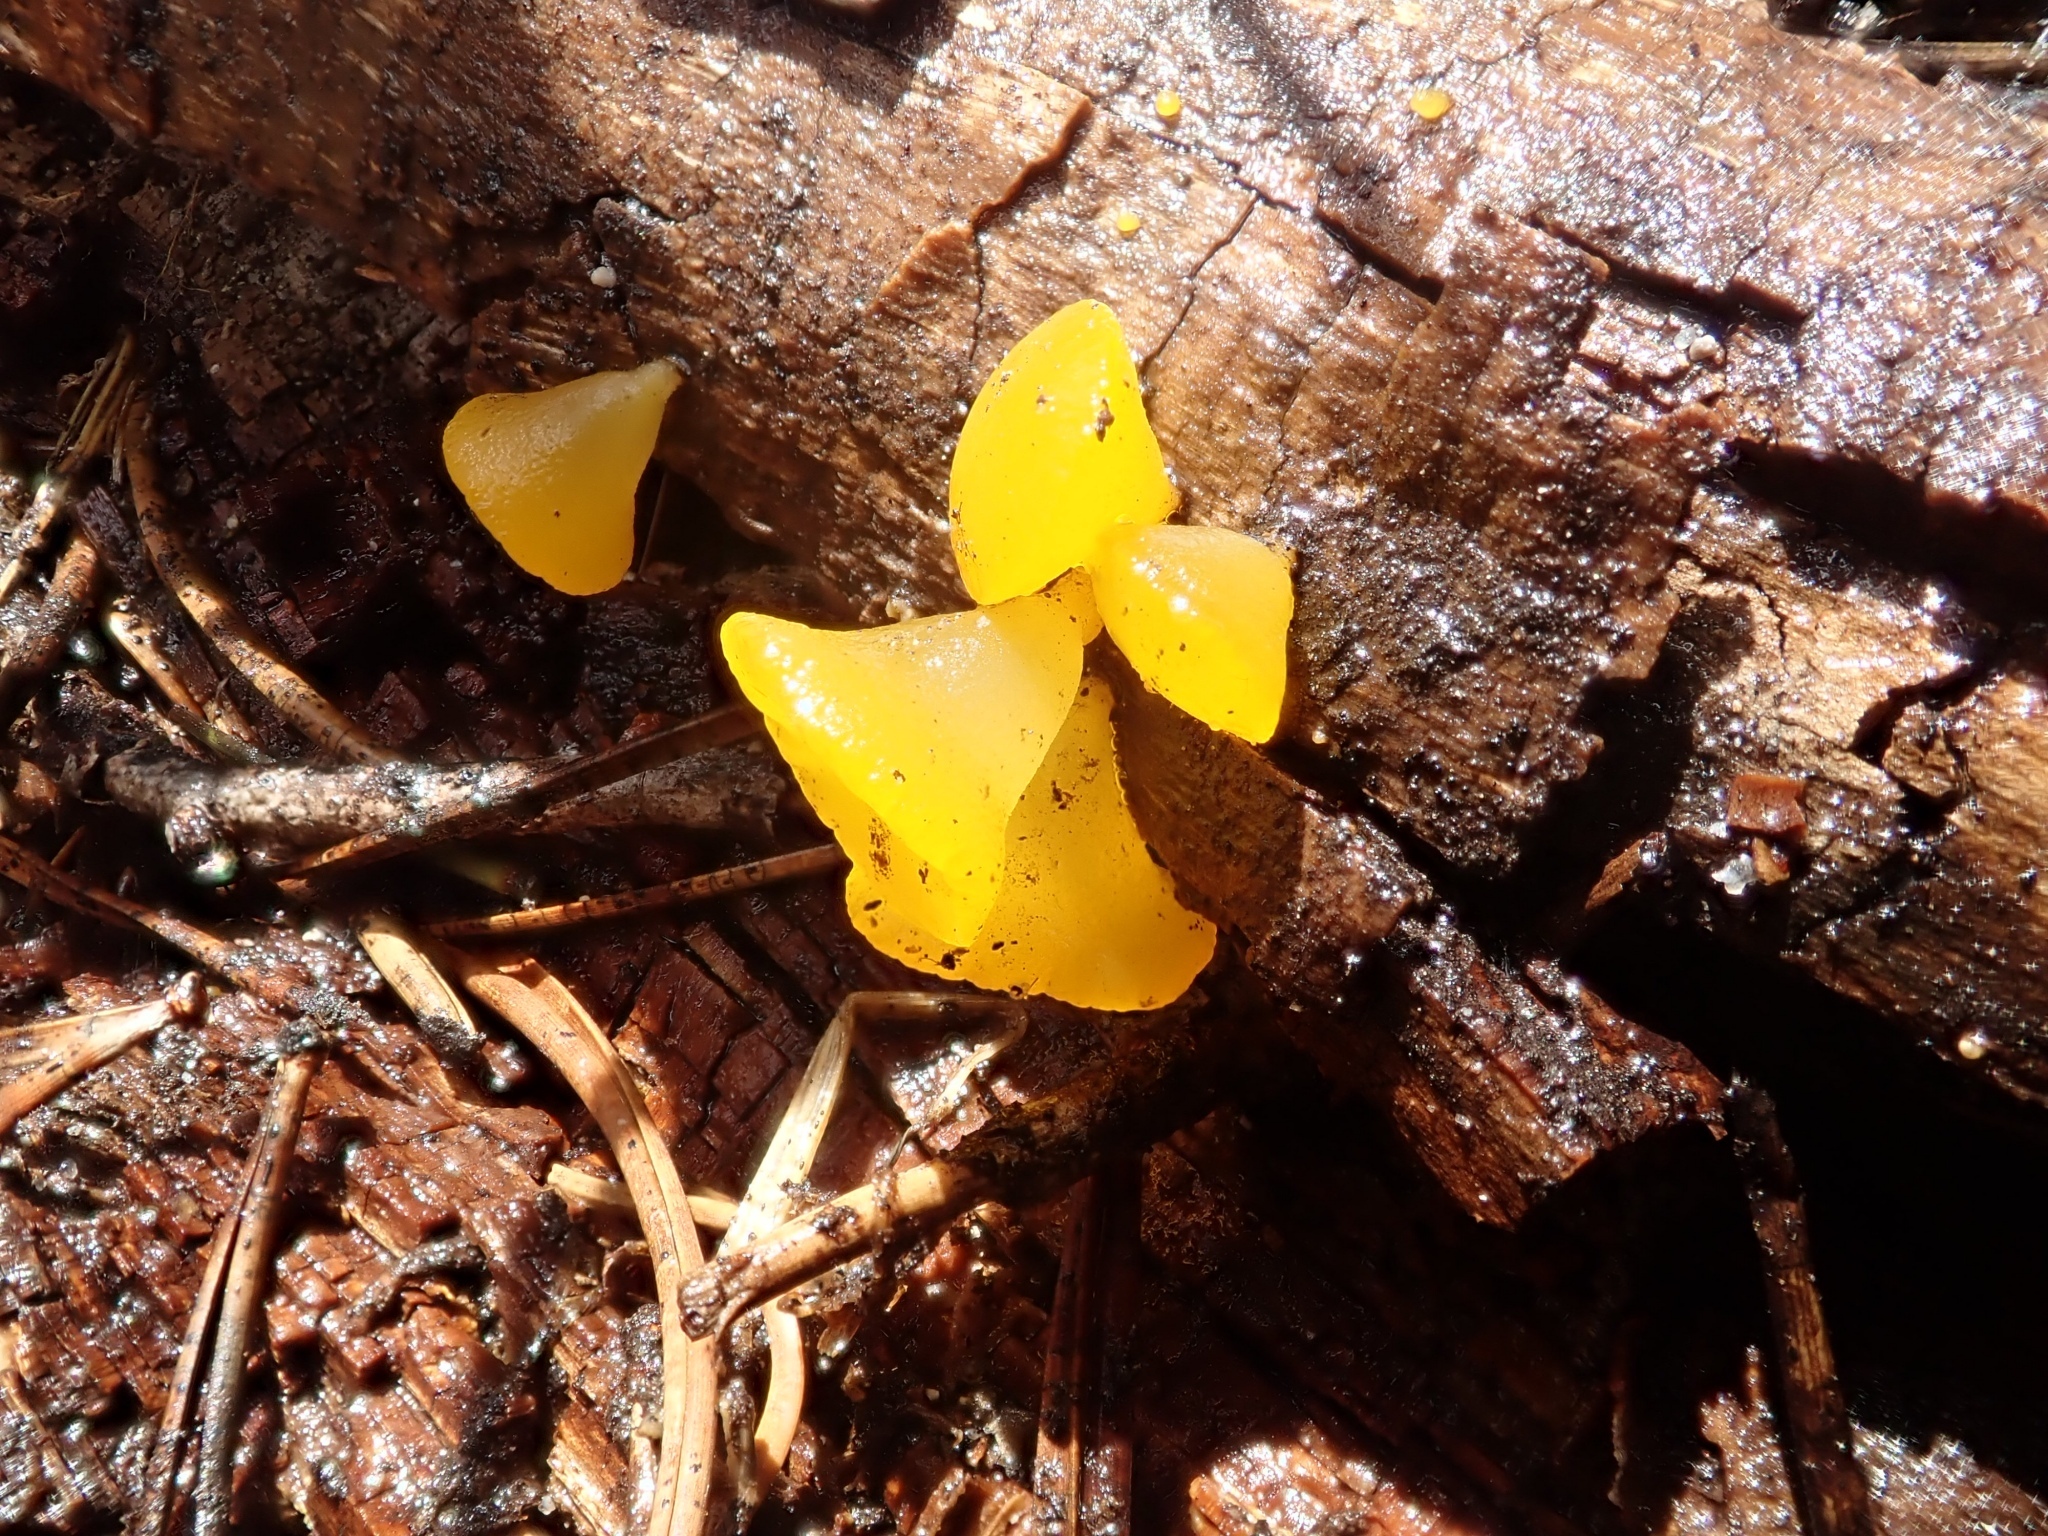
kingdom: Fungi
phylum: Basidiomycota
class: Dacrymycetes
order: Dacrymycetales
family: Dacrymycetaceae
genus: Guepiniopsis
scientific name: Guepiniopsis alpina
